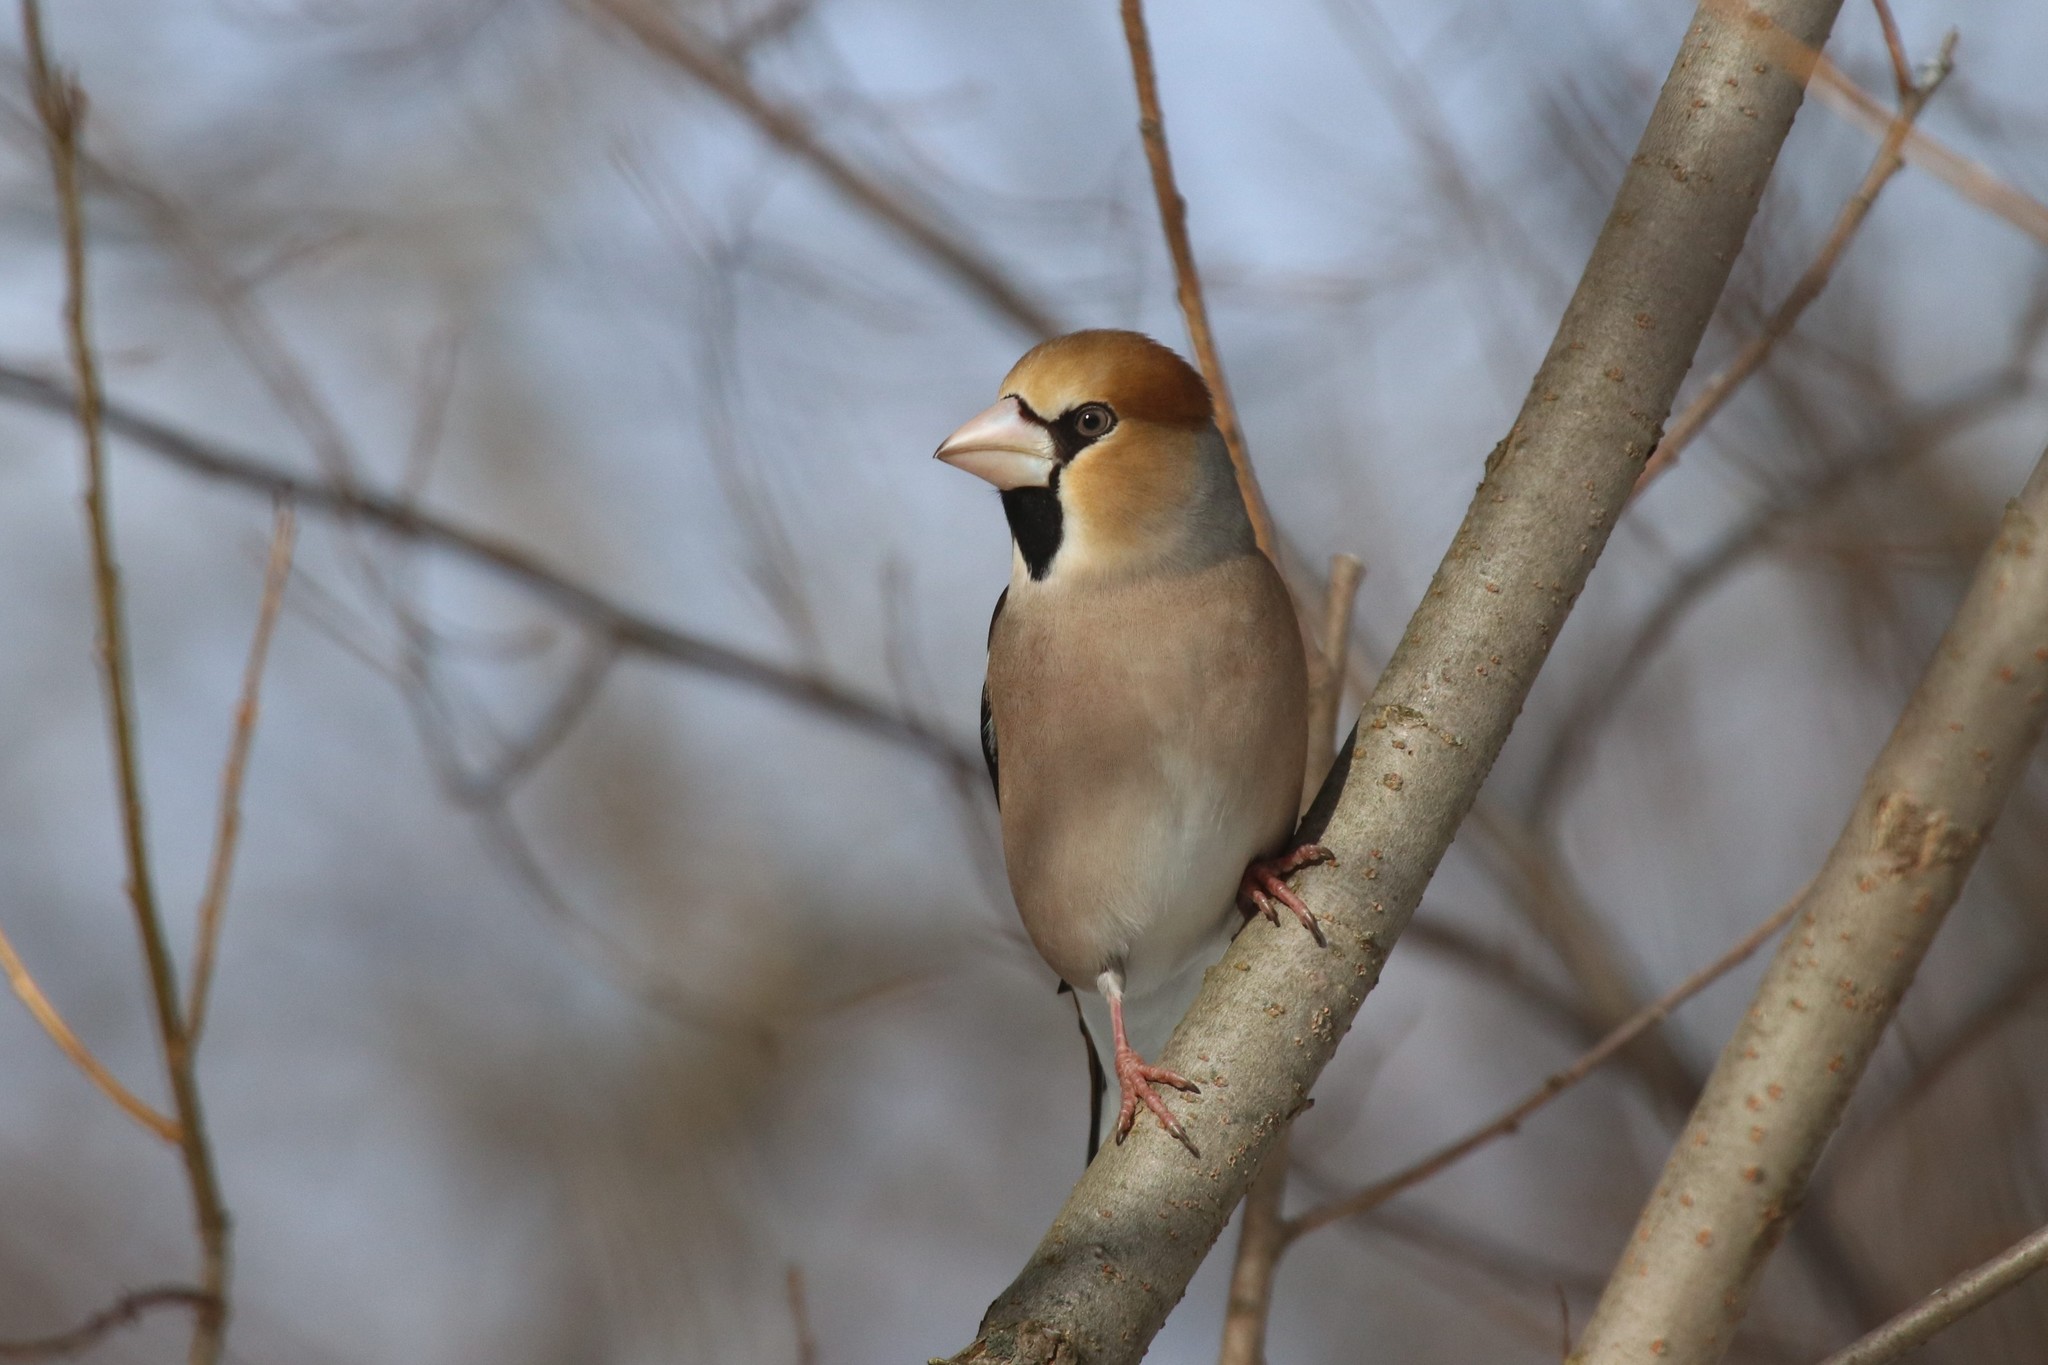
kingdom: Animalia
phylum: Chordata
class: Aves
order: Passeriformes
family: Fringillidae
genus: Coccothraustes
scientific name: Coccothraustes coccothraustes
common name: Hawfinch
